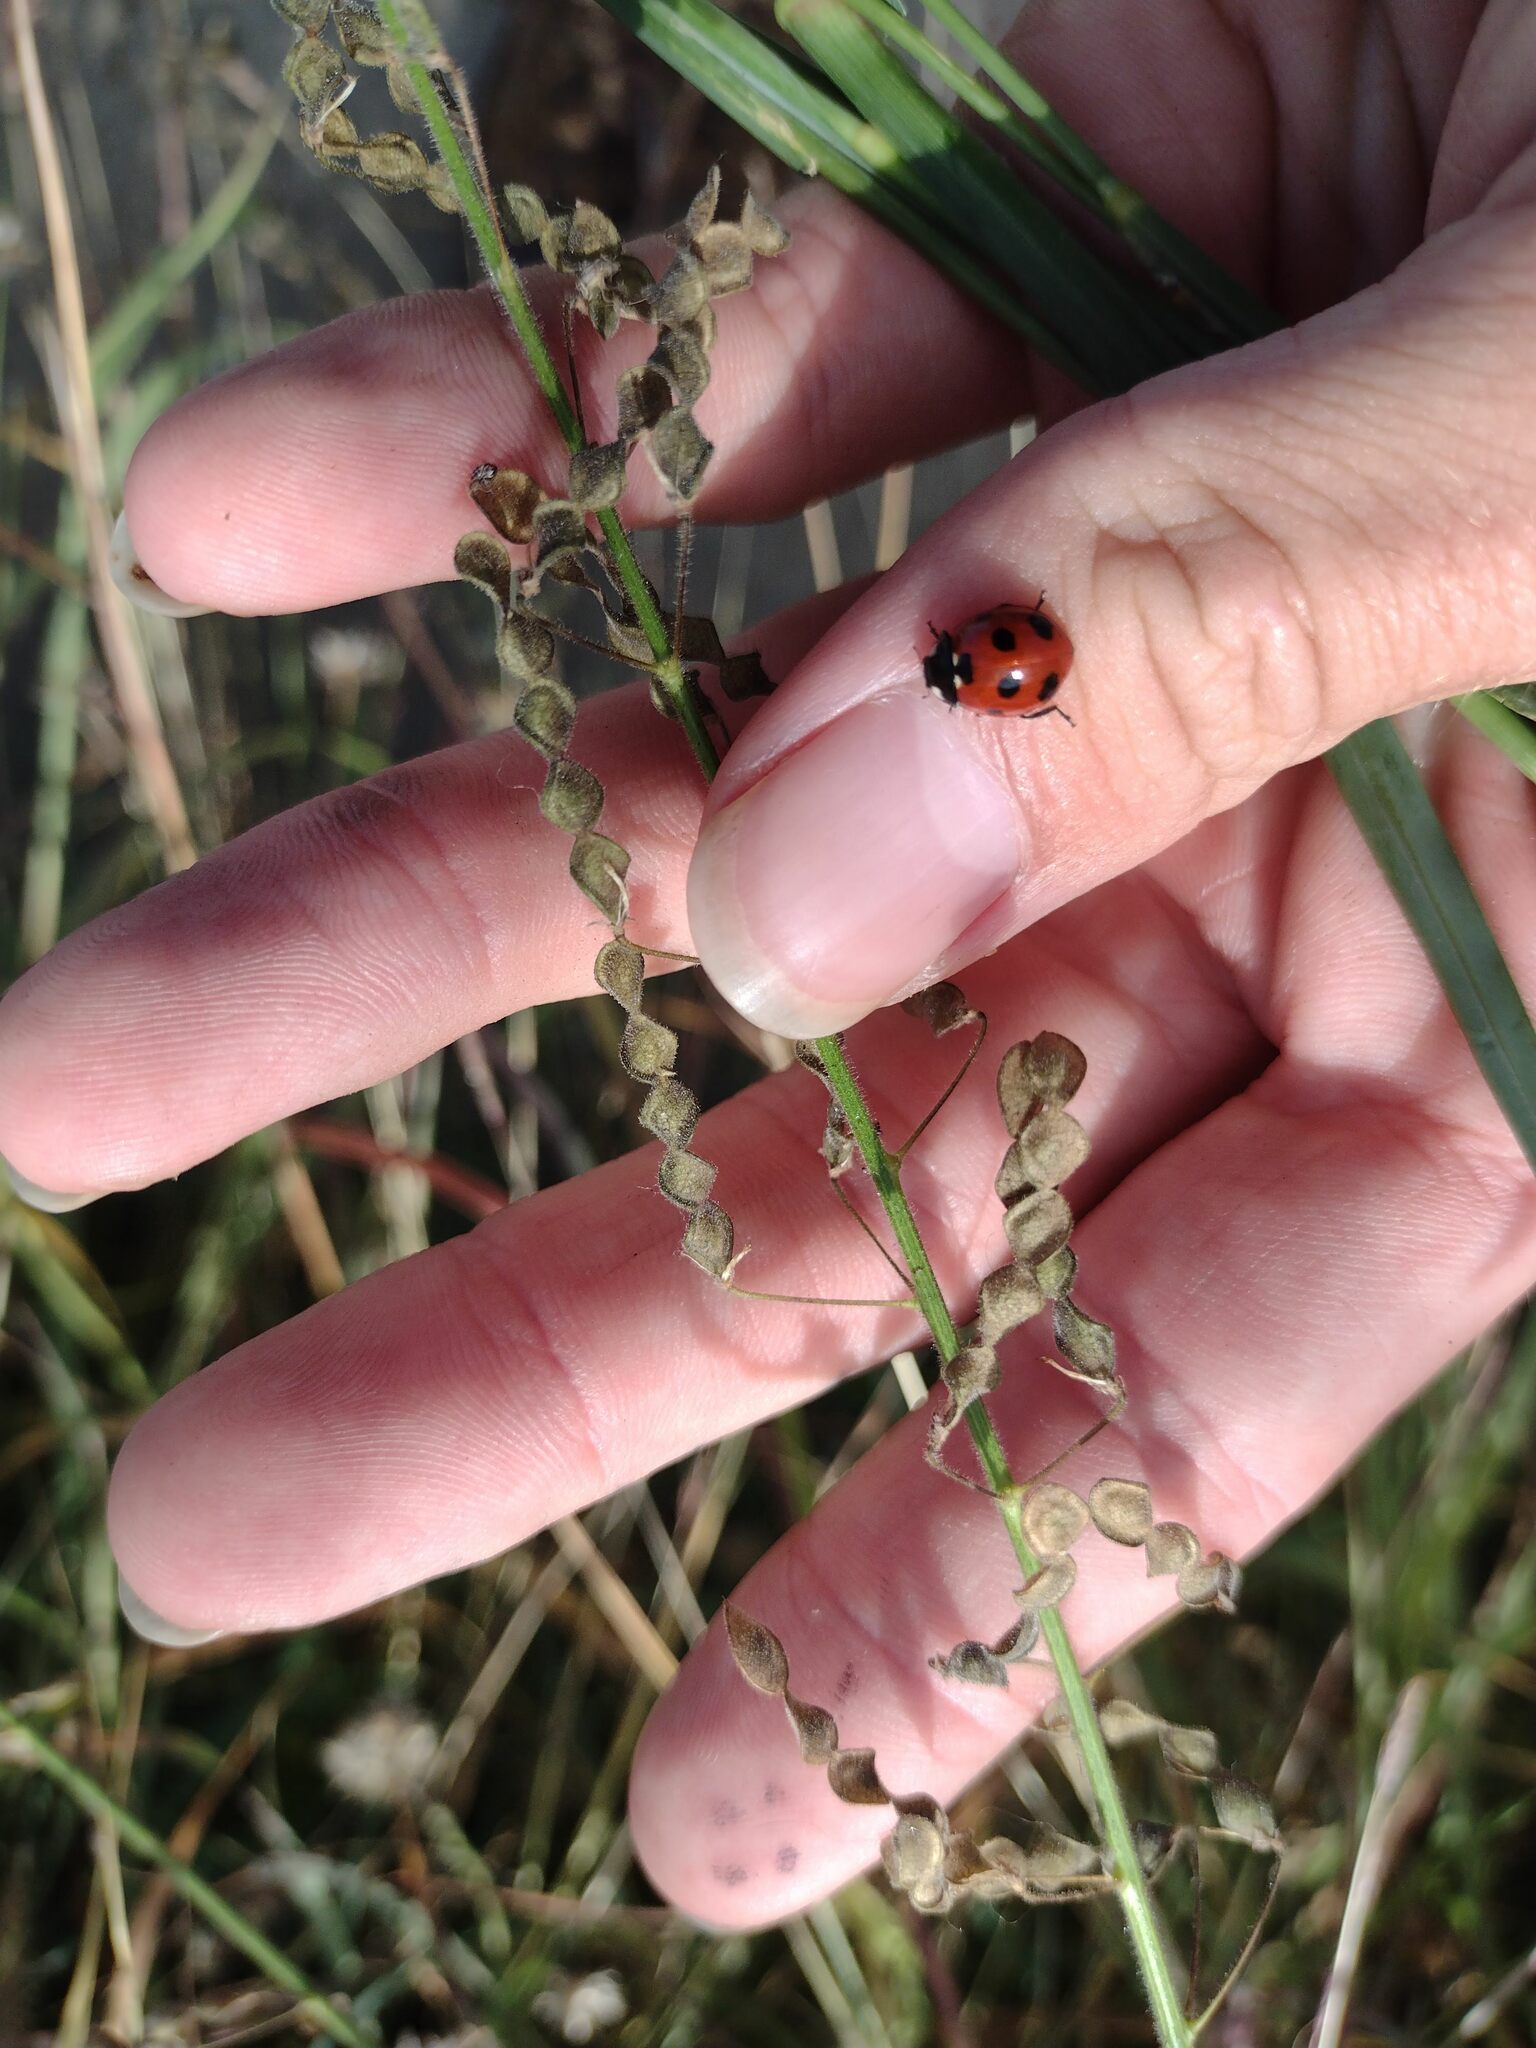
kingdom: Animalia
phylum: Arthropoda
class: Insecta
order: Coleoptera
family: Coccinellidae
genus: Coccinella
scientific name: Coccinella septempunctata
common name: Sevenspotted lady beetle
